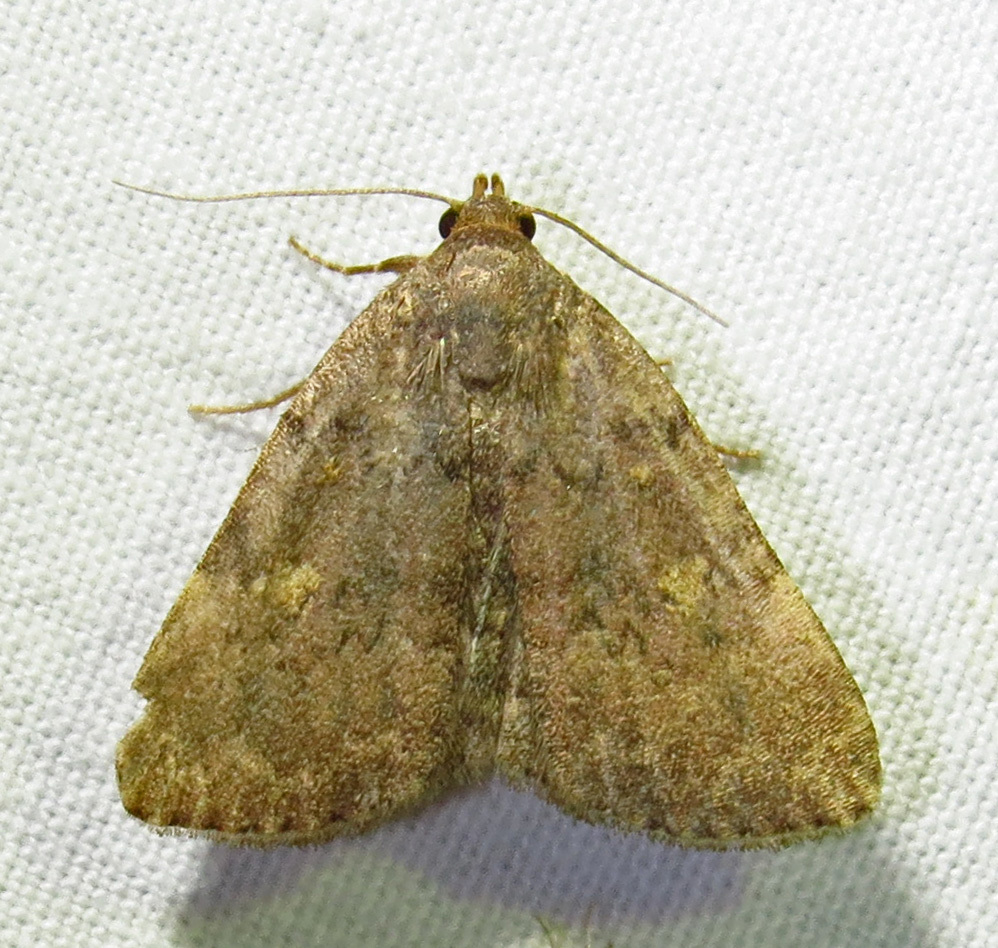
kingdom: Animalia
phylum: Arthropoda
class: Insecta
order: Lepidoptera
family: Erebidae
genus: Idia
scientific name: Idia aemula
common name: Common idia moth
